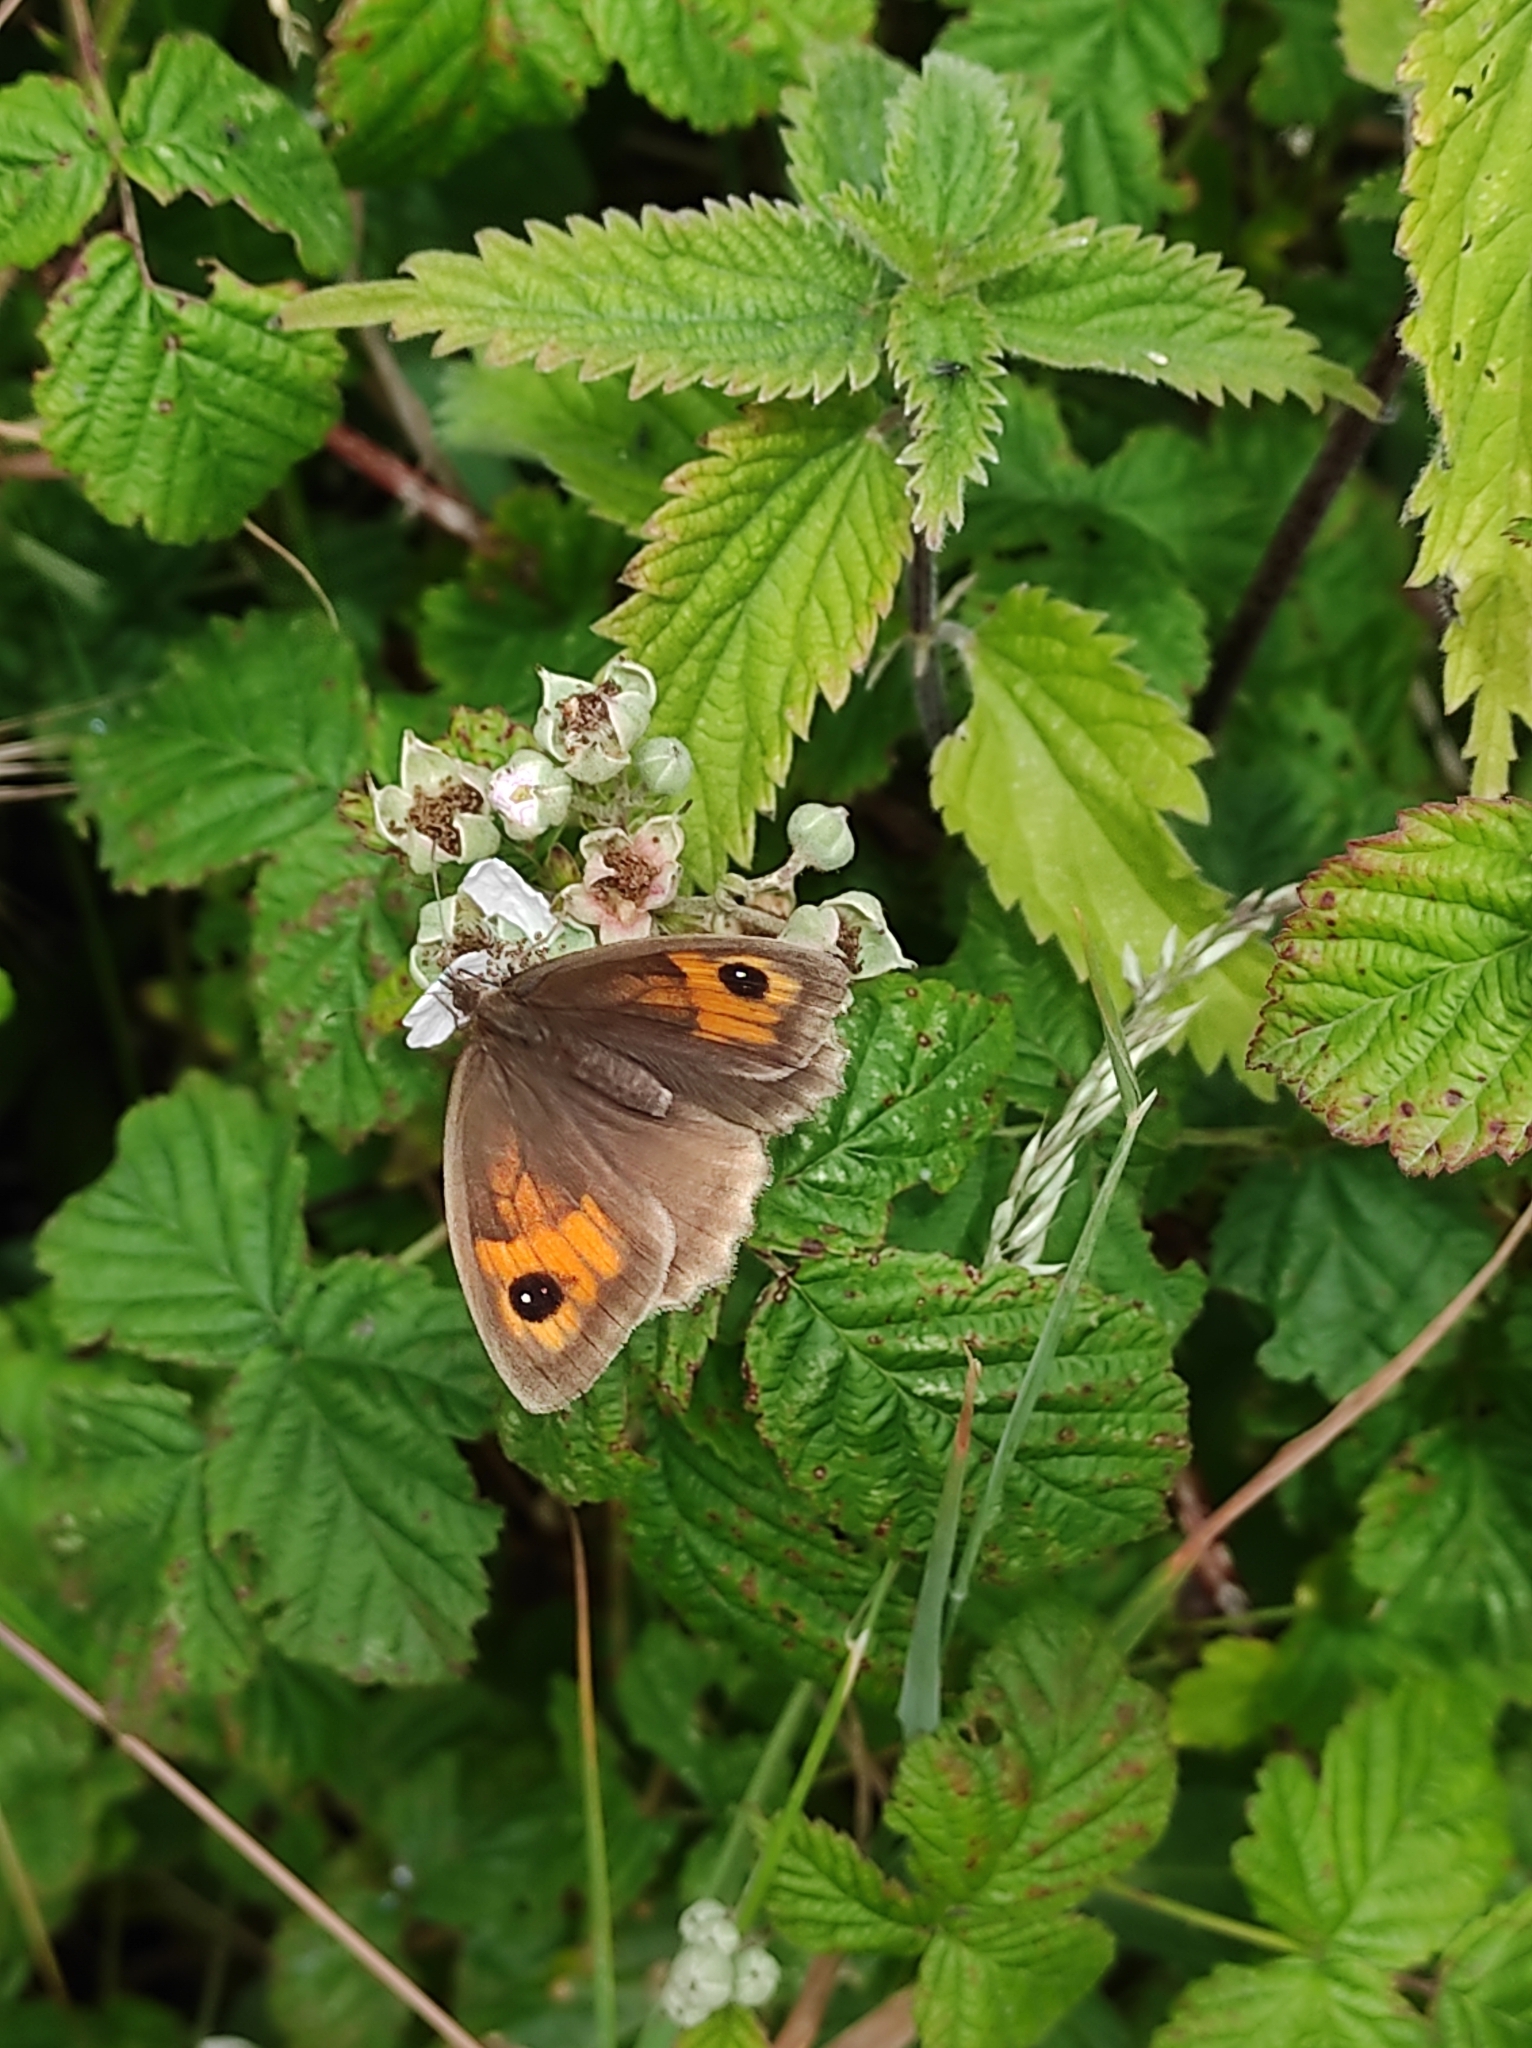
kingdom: Animalia
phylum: Arthropoda
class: Insecta
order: Lepidoptera
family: Nymphalidae
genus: Maniola
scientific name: Maniola jurtina
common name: Meadow brown
